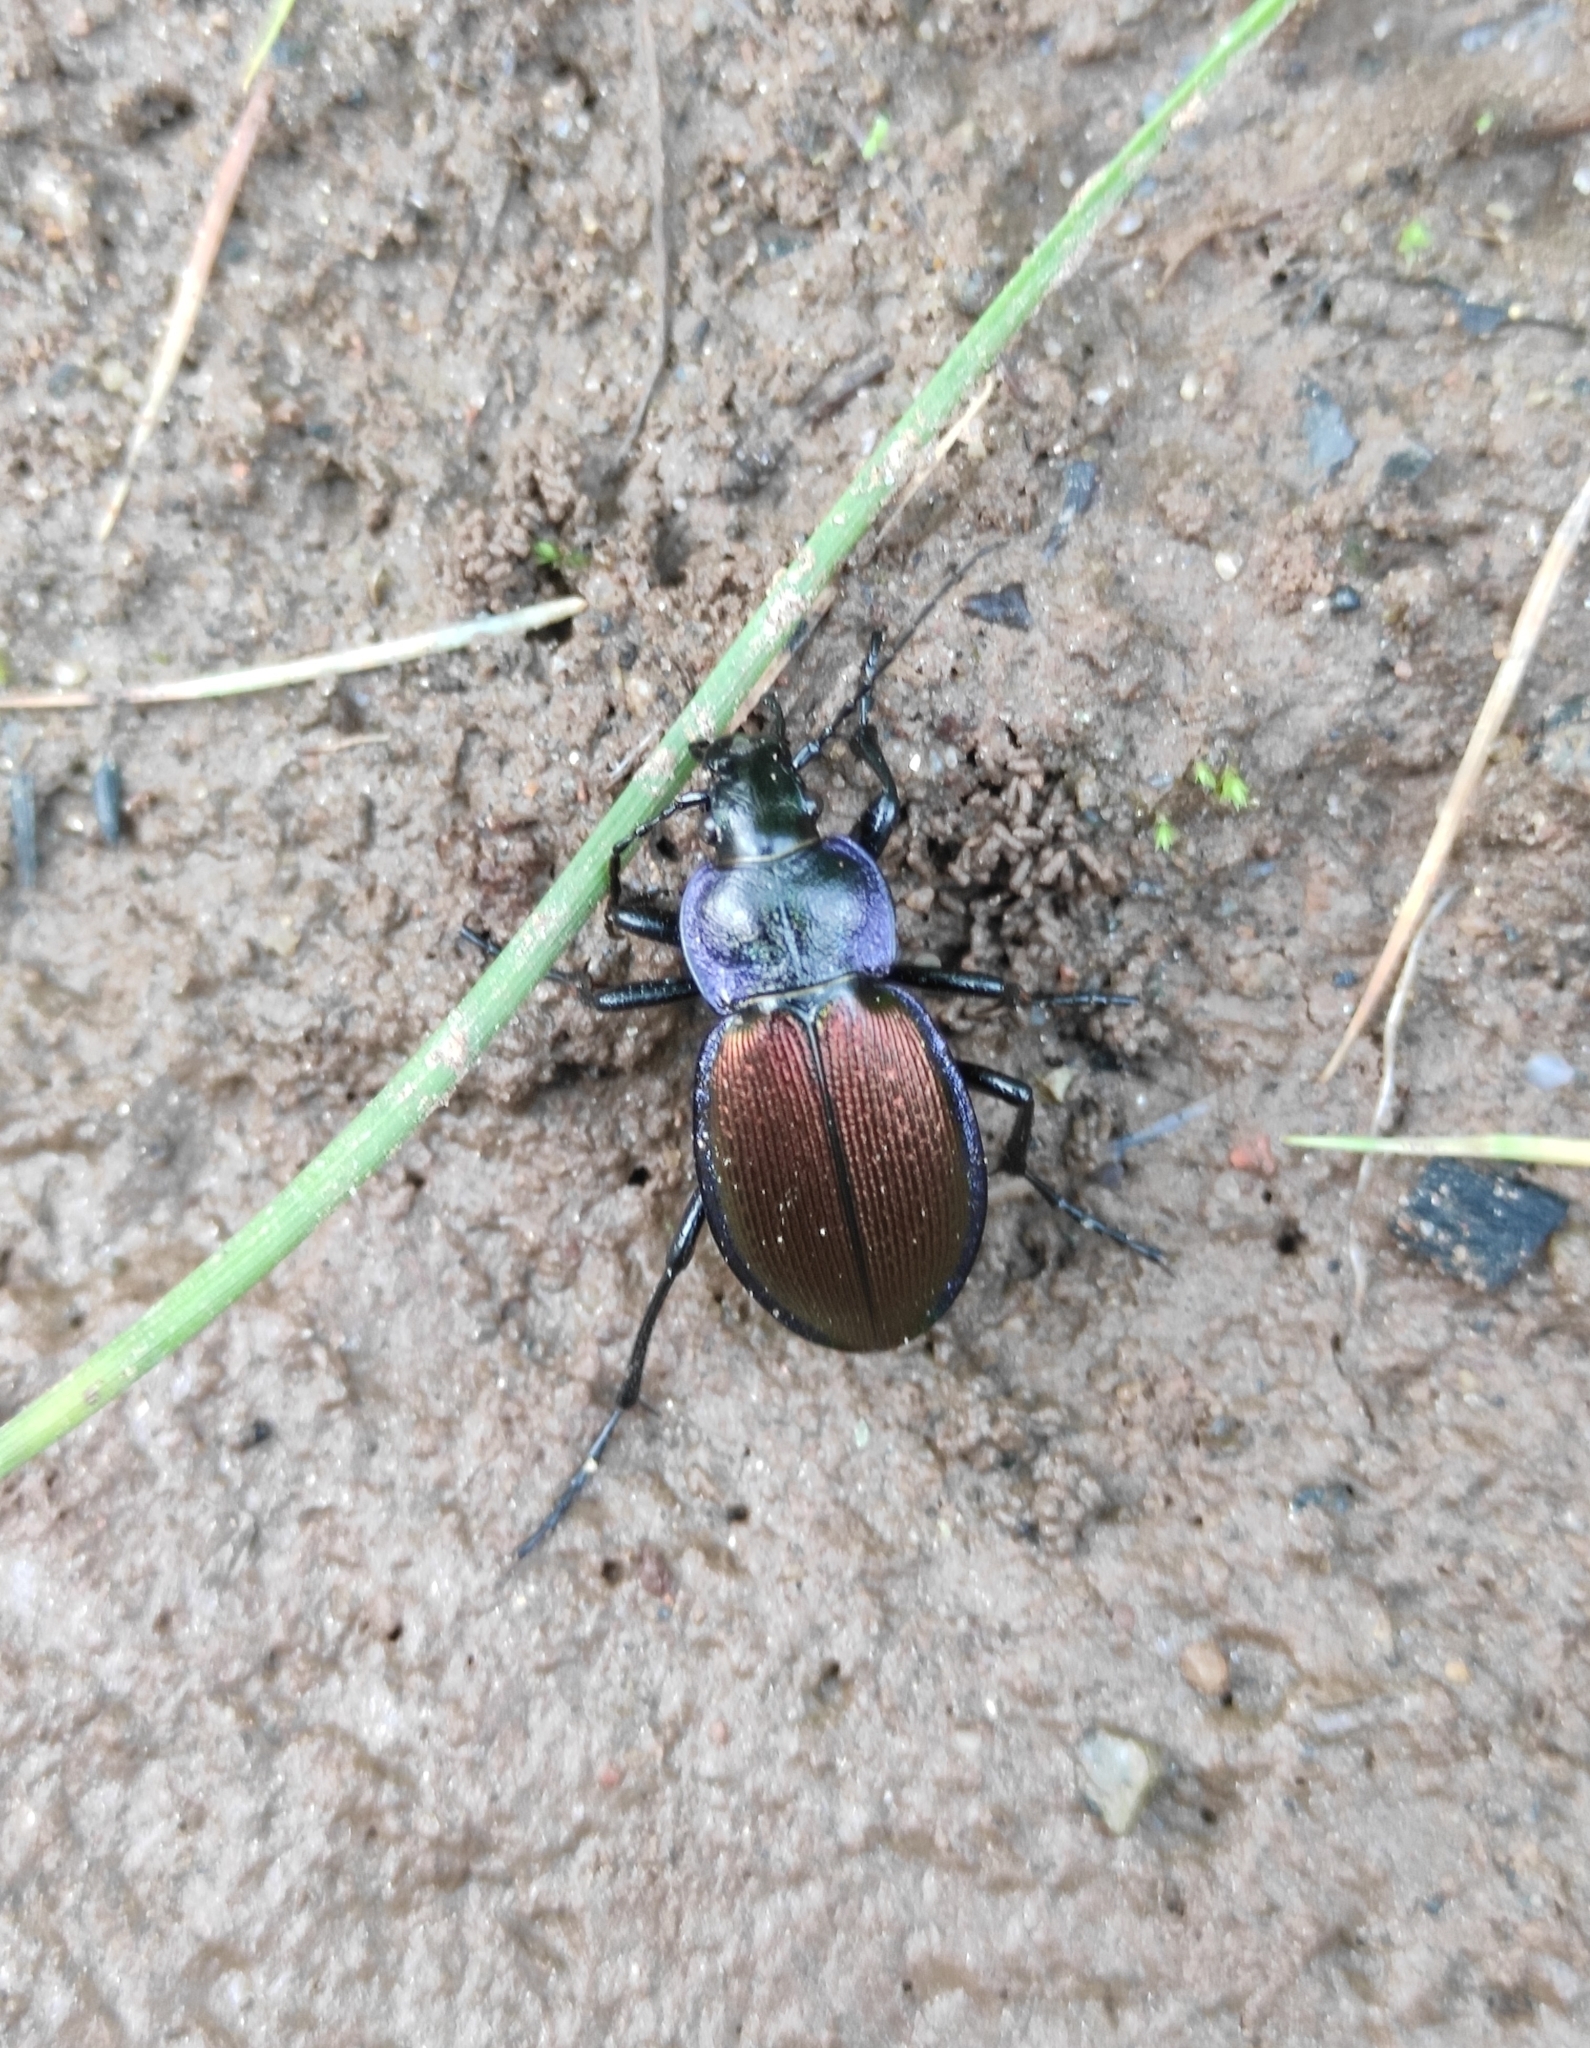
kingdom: Animalia
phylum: Arthropoda
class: Insecta
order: Coleoptera
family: Carabidae
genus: Carabus
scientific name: Carabus regalis
